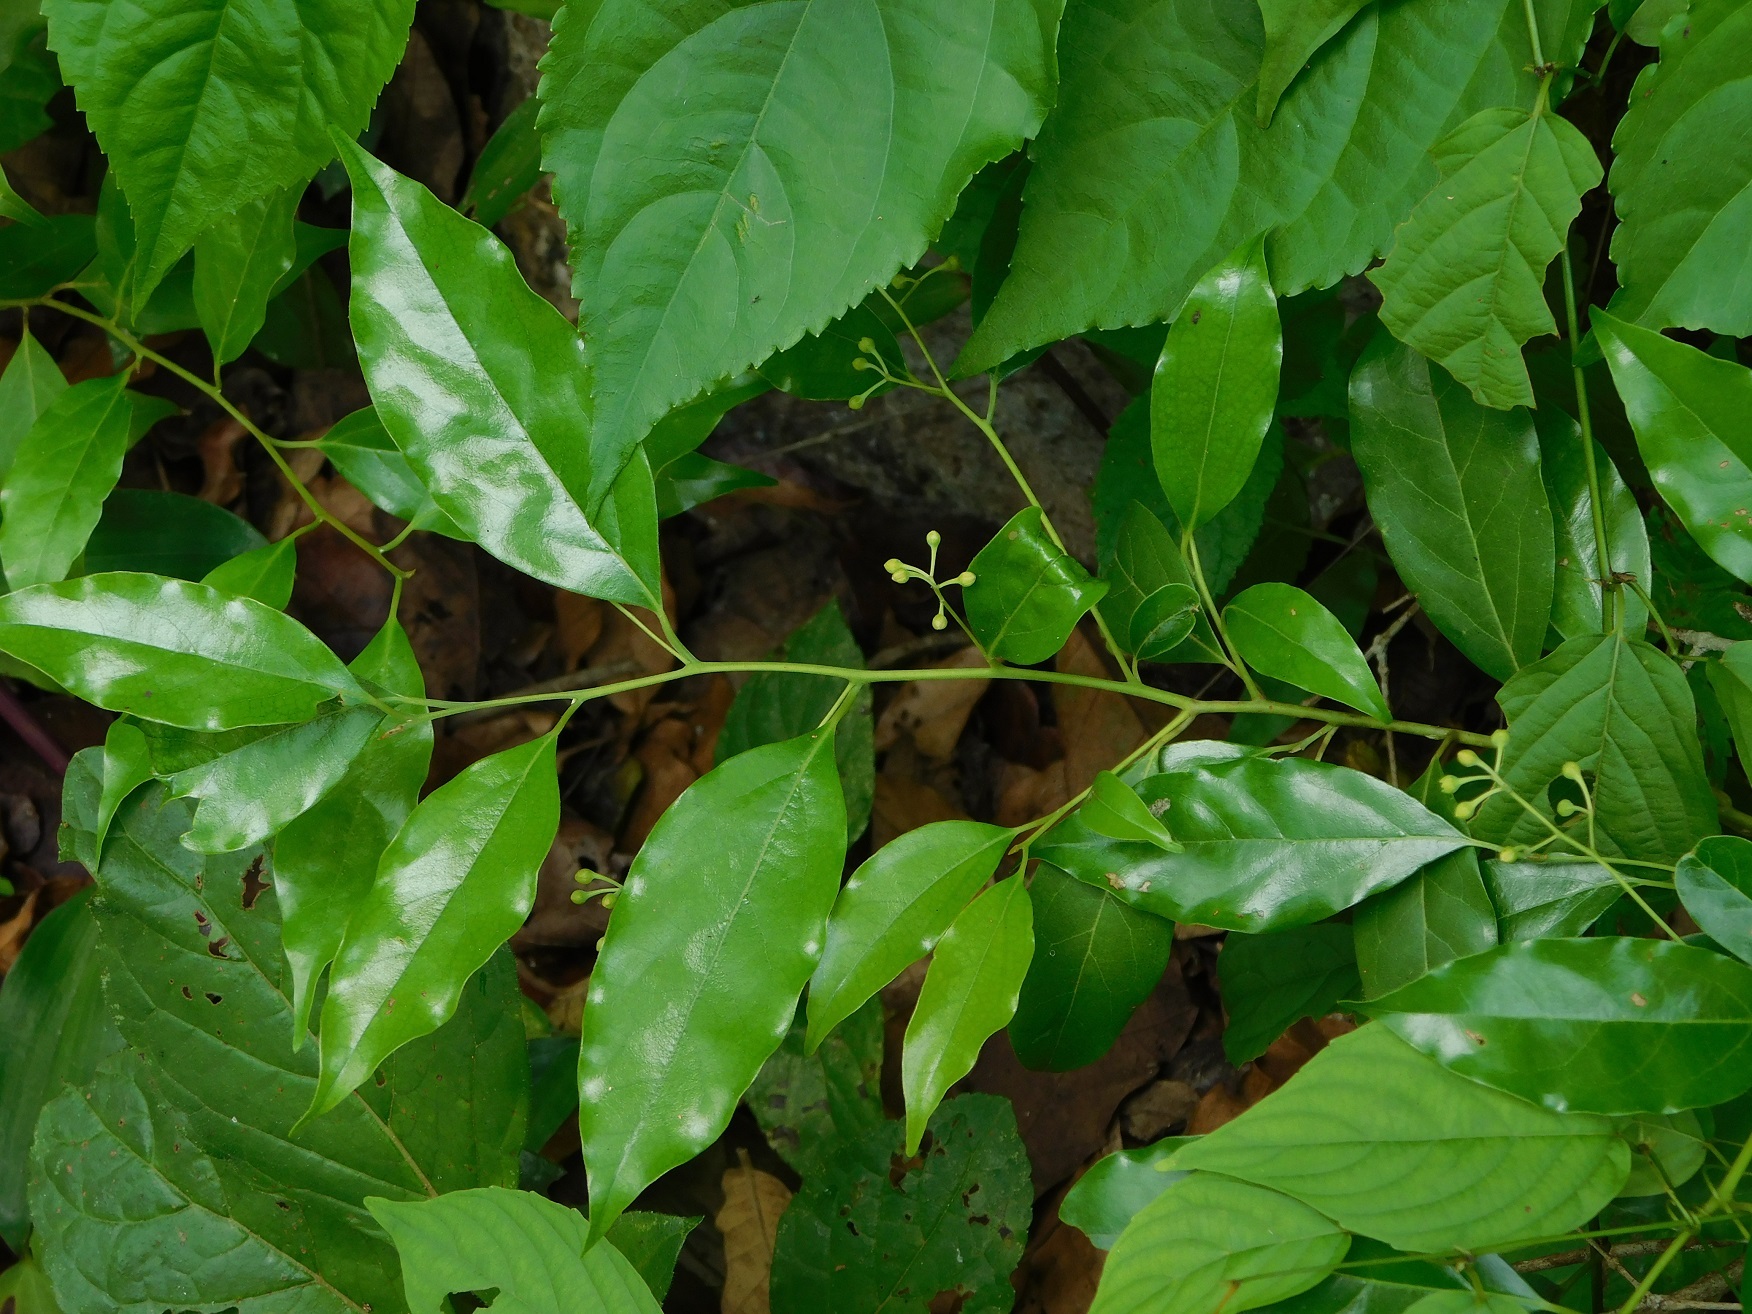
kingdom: Plantae
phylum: Tracheophyta
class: Magnoliopsida
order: Laurales
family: Lauraceae
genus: Licaria
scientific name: Licaria misantlae
